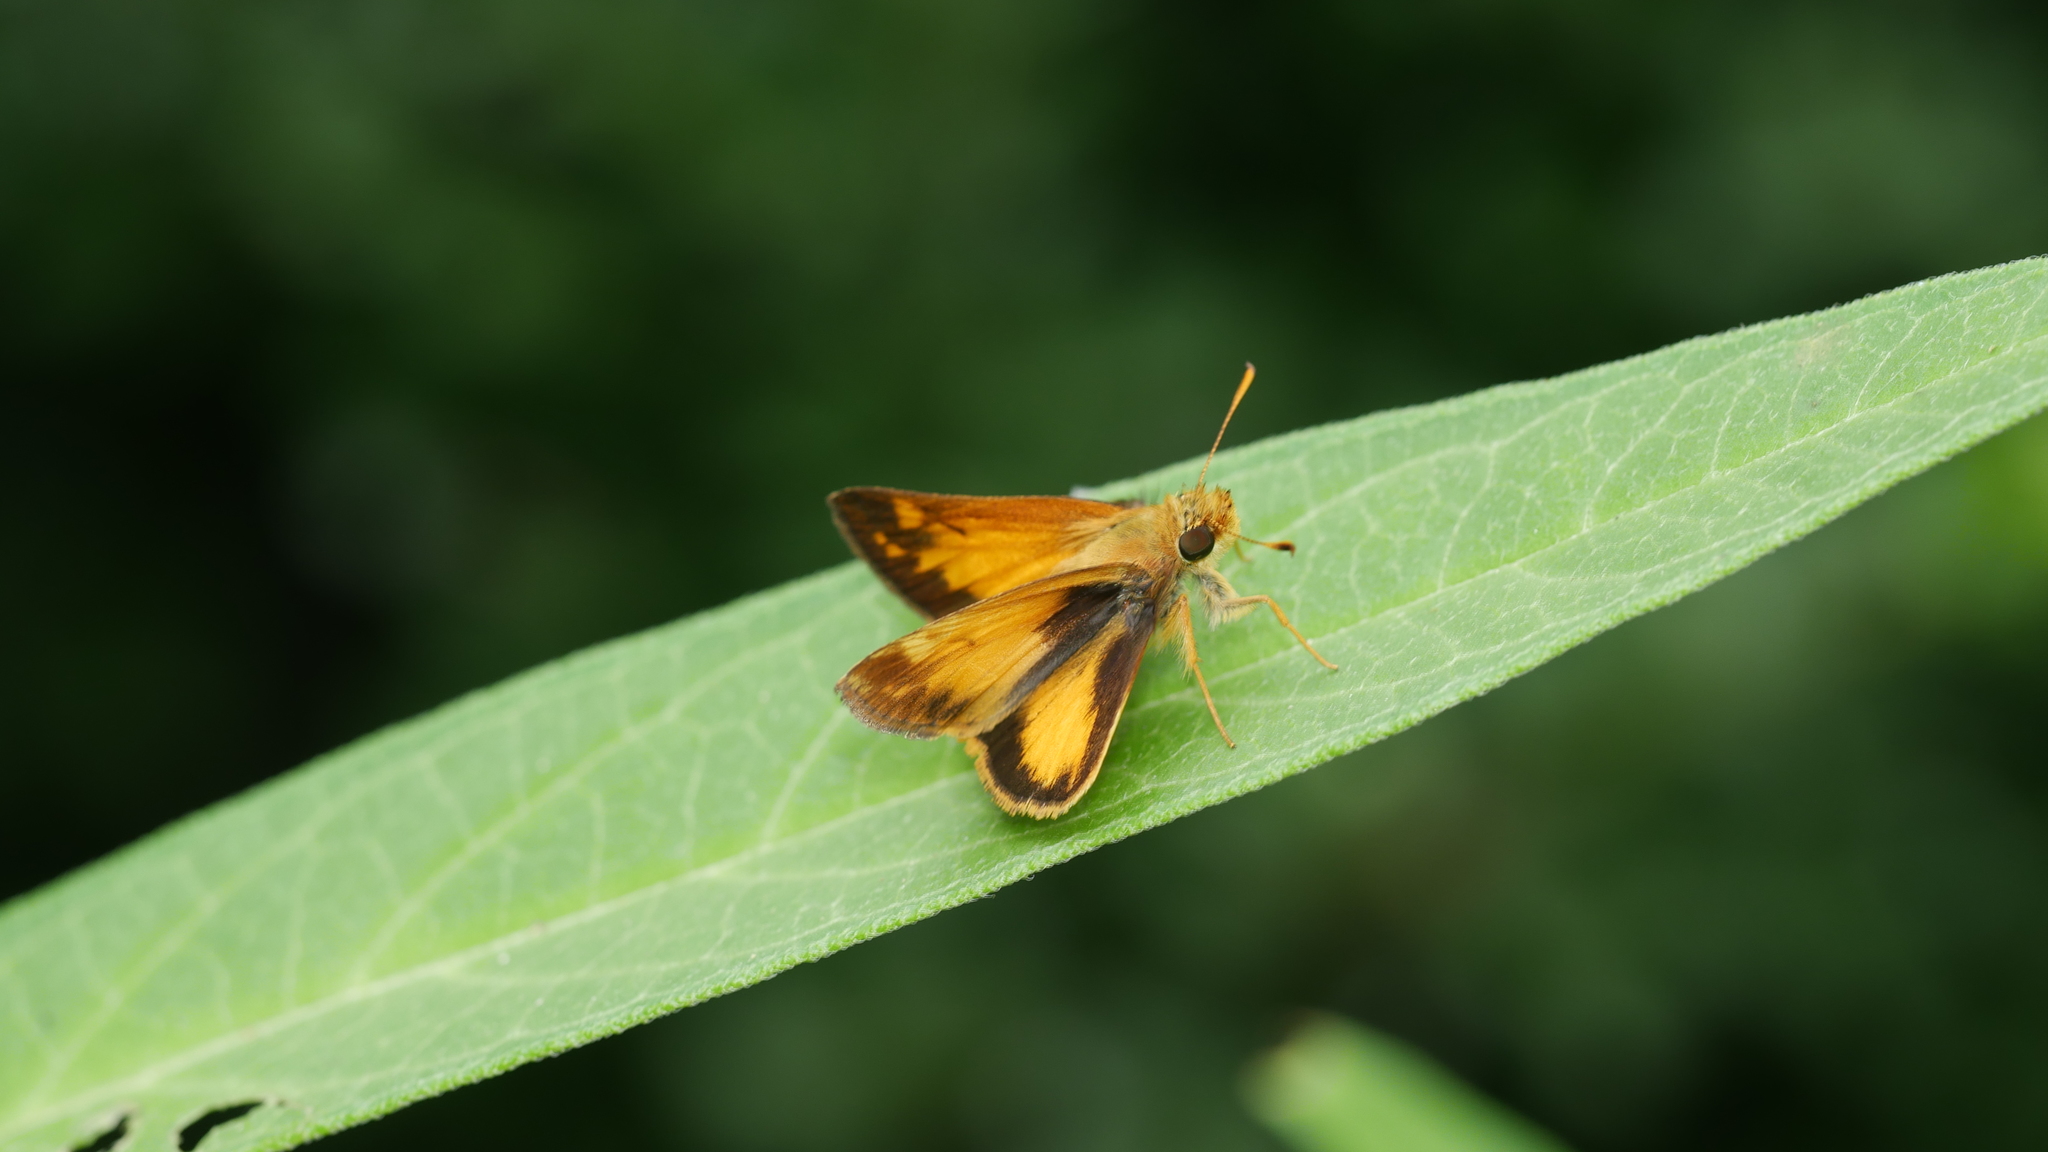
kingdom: Animalia
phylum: Arthropoda
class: Insecta
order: Lepidoptera
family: Hesperiidae
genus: Lon
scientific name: Lon zabulon
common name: Zabulon skipper
